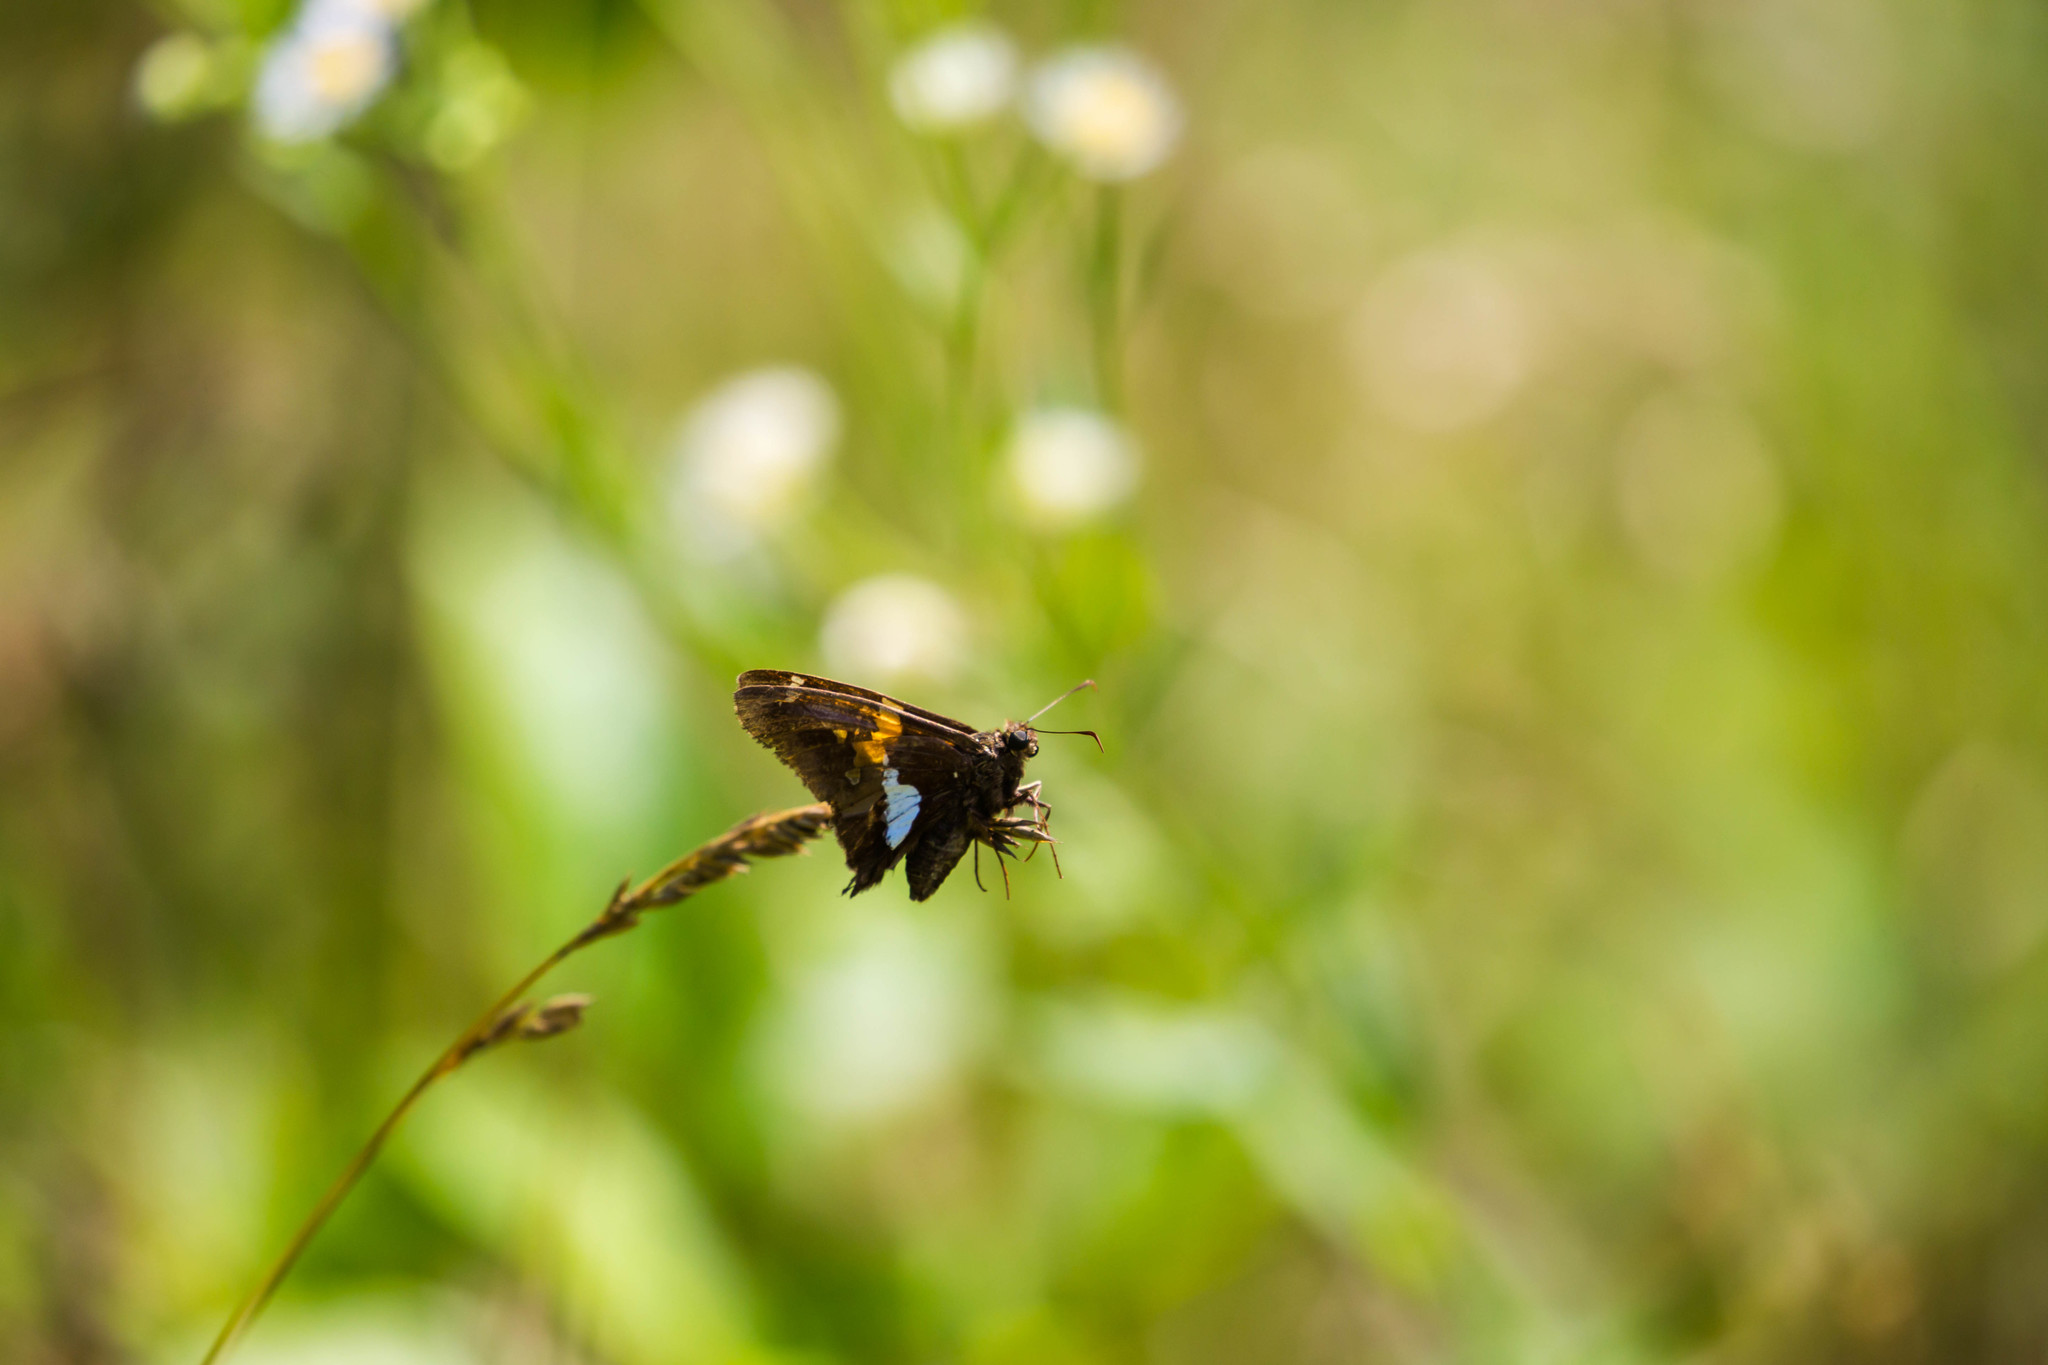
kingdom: Animalia
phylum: Arthropoda
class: Insecta
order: Lepidoptera
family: Hesperiidae
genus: Epargyreus
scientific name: Epargyreus clarus
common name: Silver-spotted skipper
